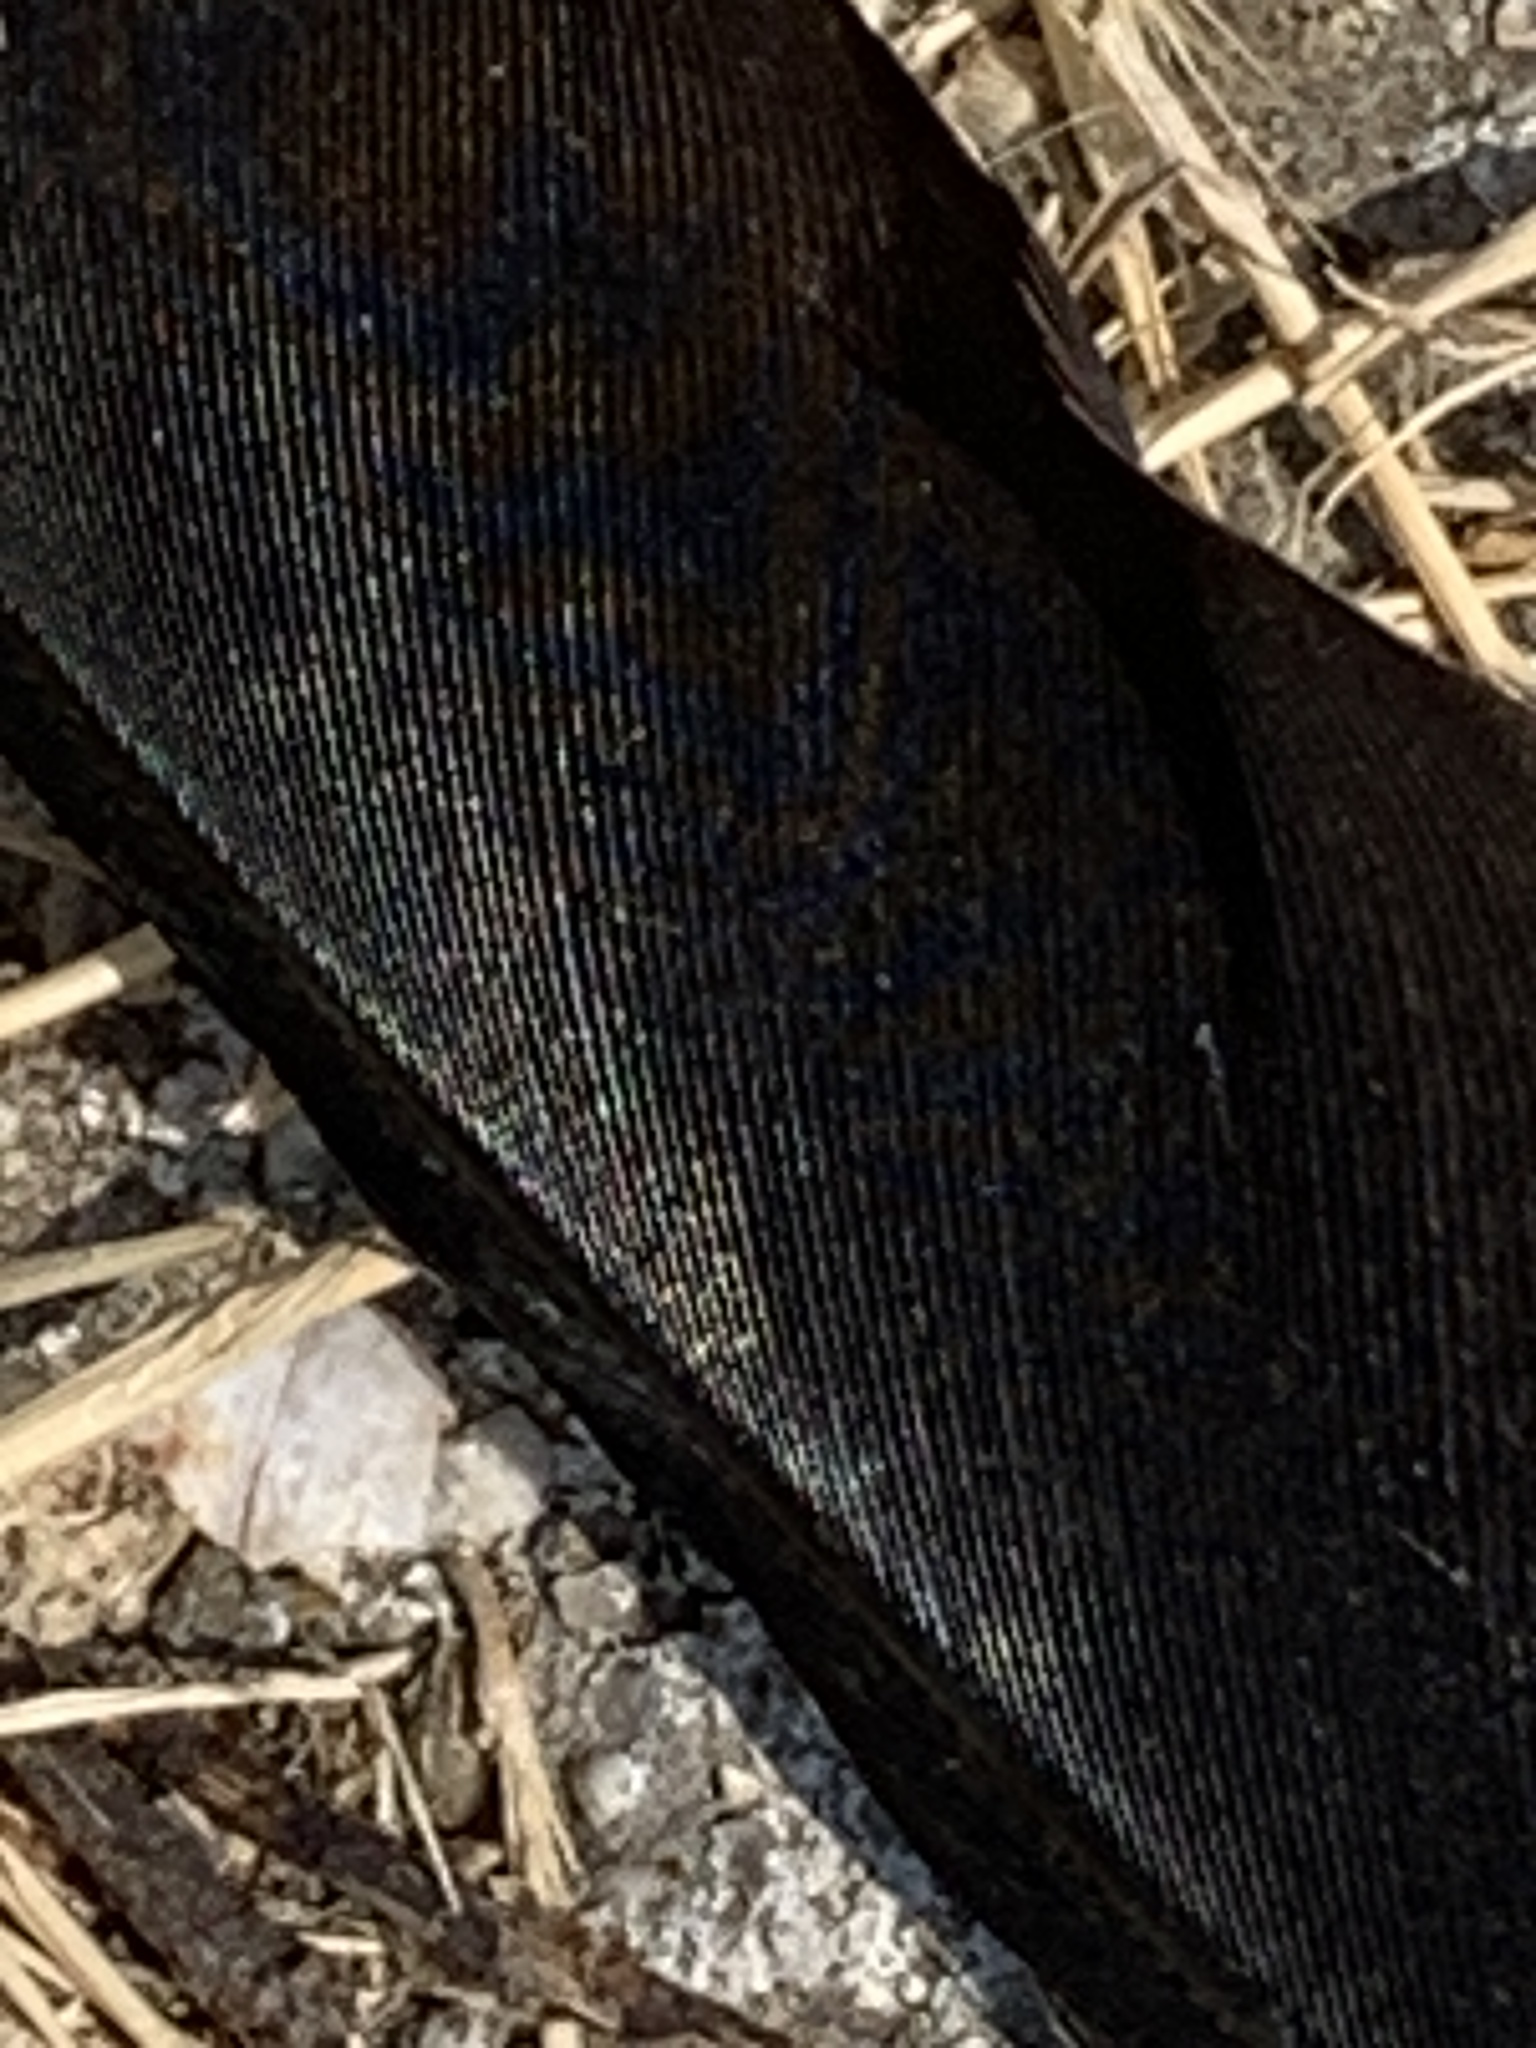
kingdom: Animalia
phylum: Chordata
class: Aves
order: Passeriformes
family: Corvidae
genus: Corvus
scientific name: Corvus brachyrhynchos
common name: American crow
